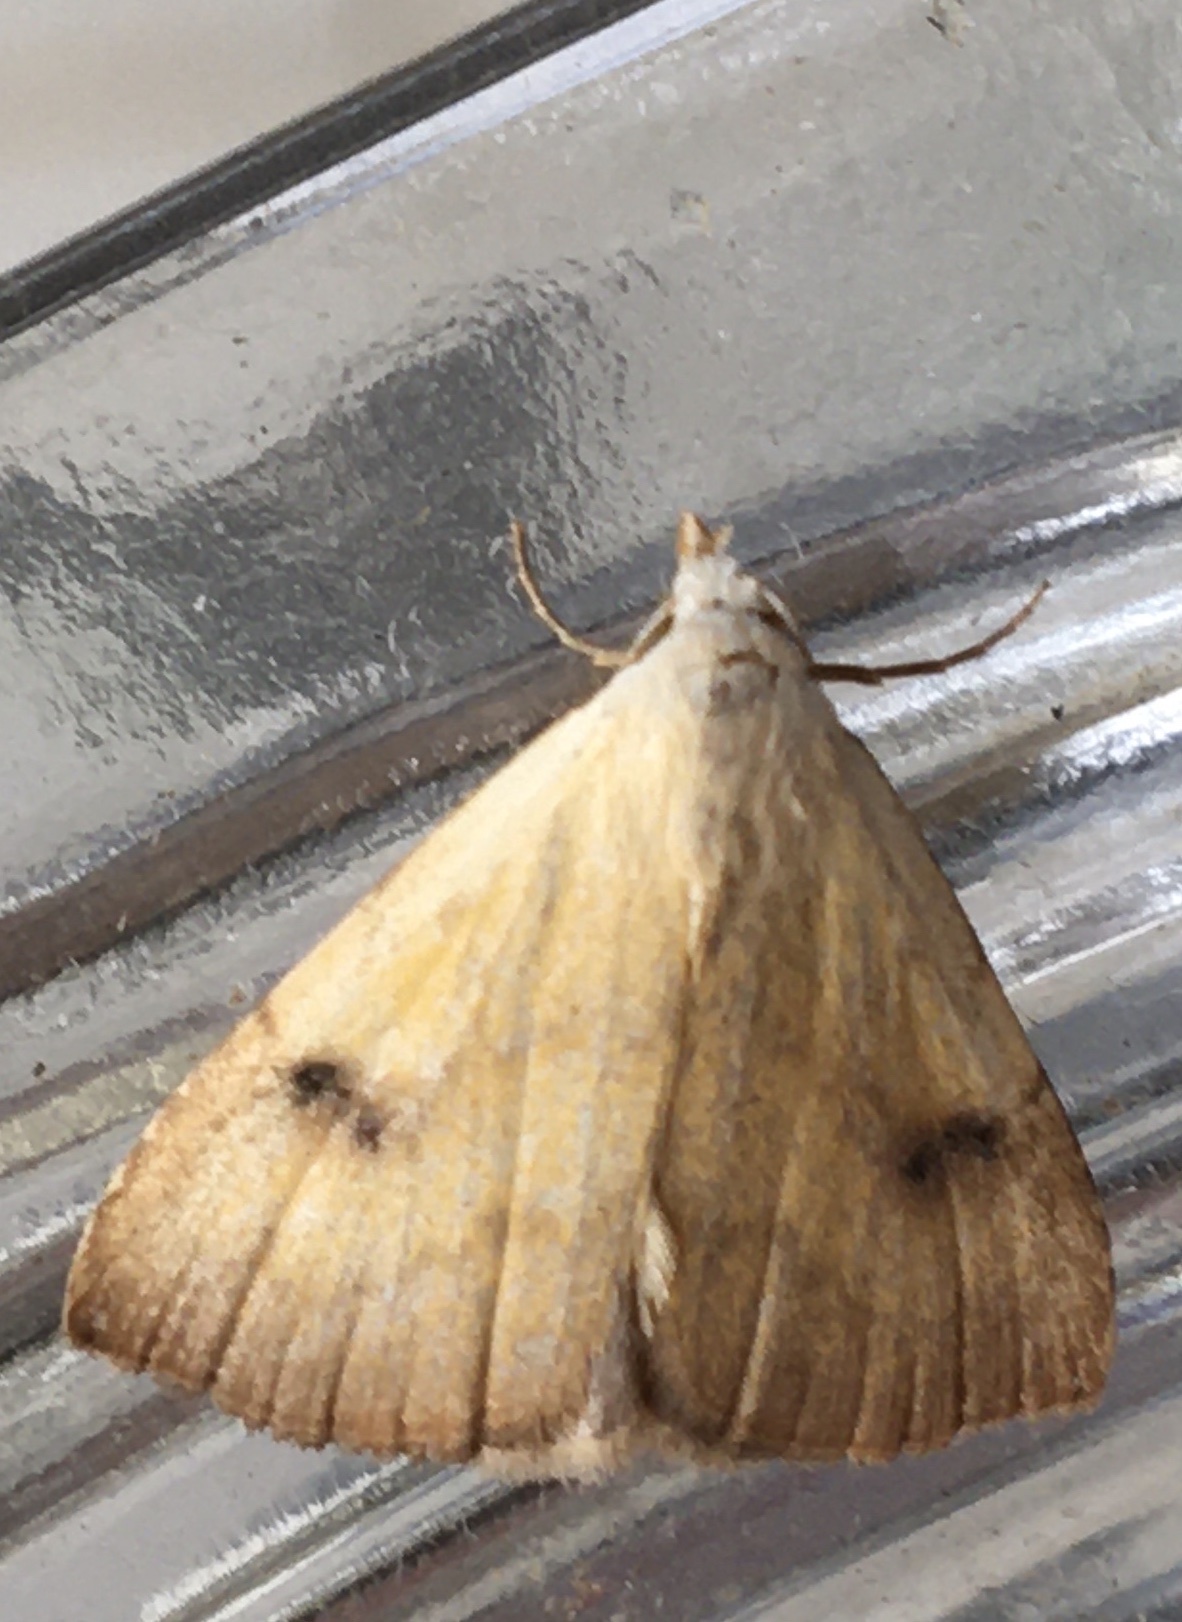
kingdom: Animalia
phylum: Arthropoda
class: Insecta
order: Lepidoptera
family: Erebidae
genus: Rivula
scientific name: Rivula sericealis
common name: Straw dot
